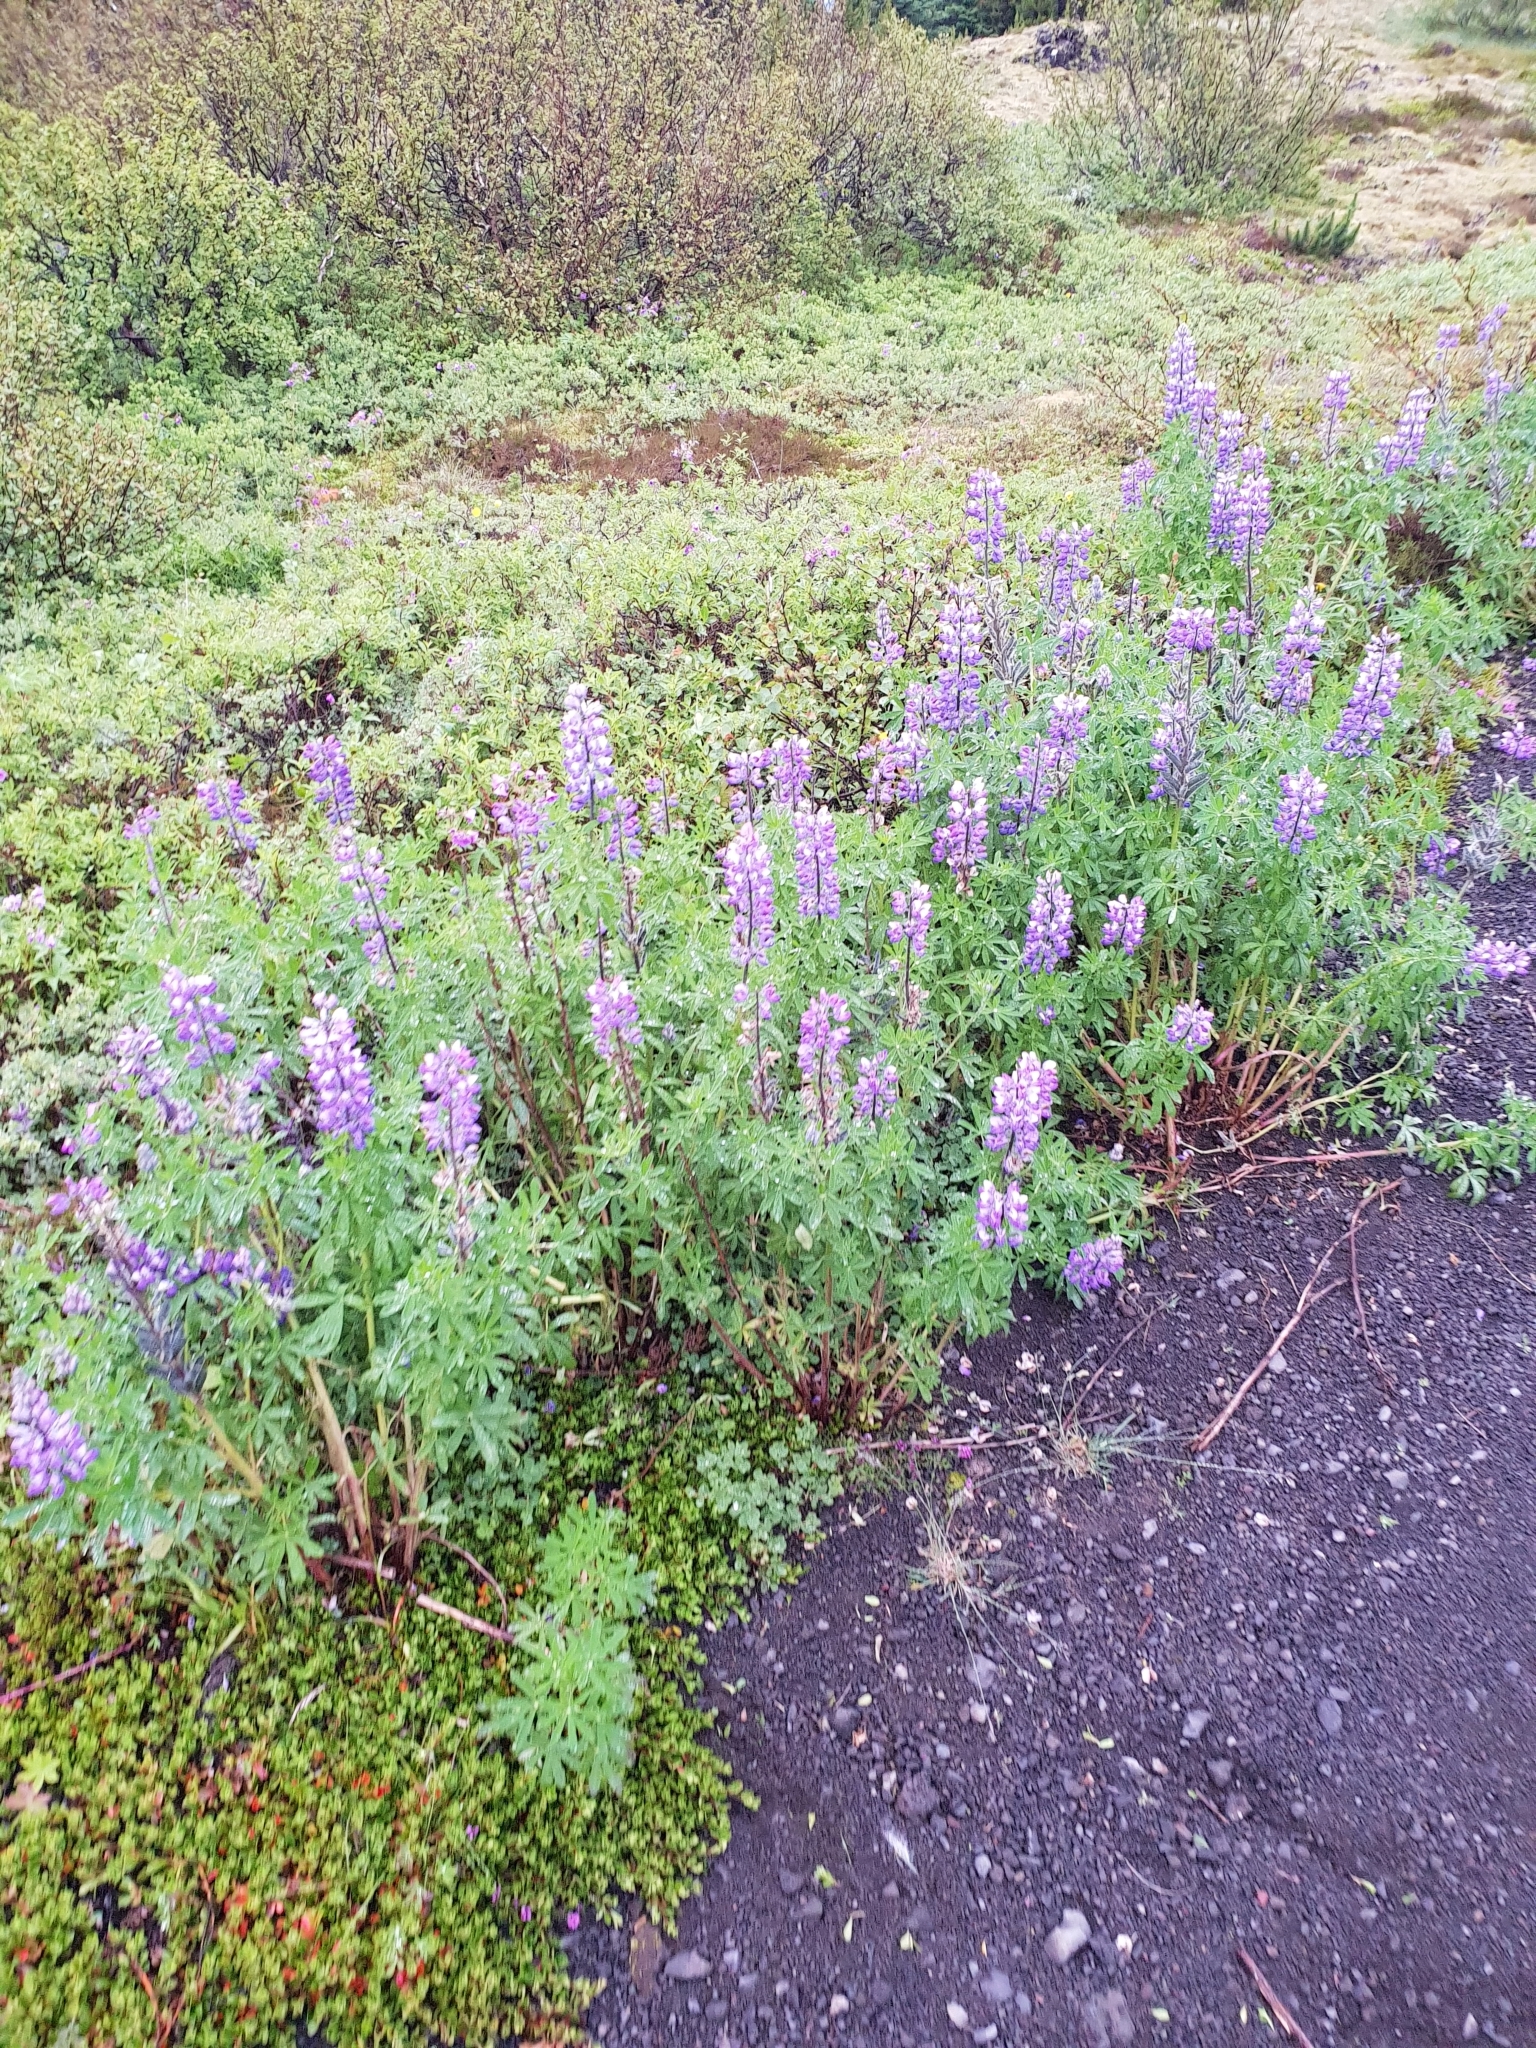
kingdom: Plantae
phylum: Tracheophyta
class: Magnoliopsida
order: Fabales
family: Fabaceae
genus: Lupinus
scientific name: Lupinus nootkatensis
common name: Nootka lupine
